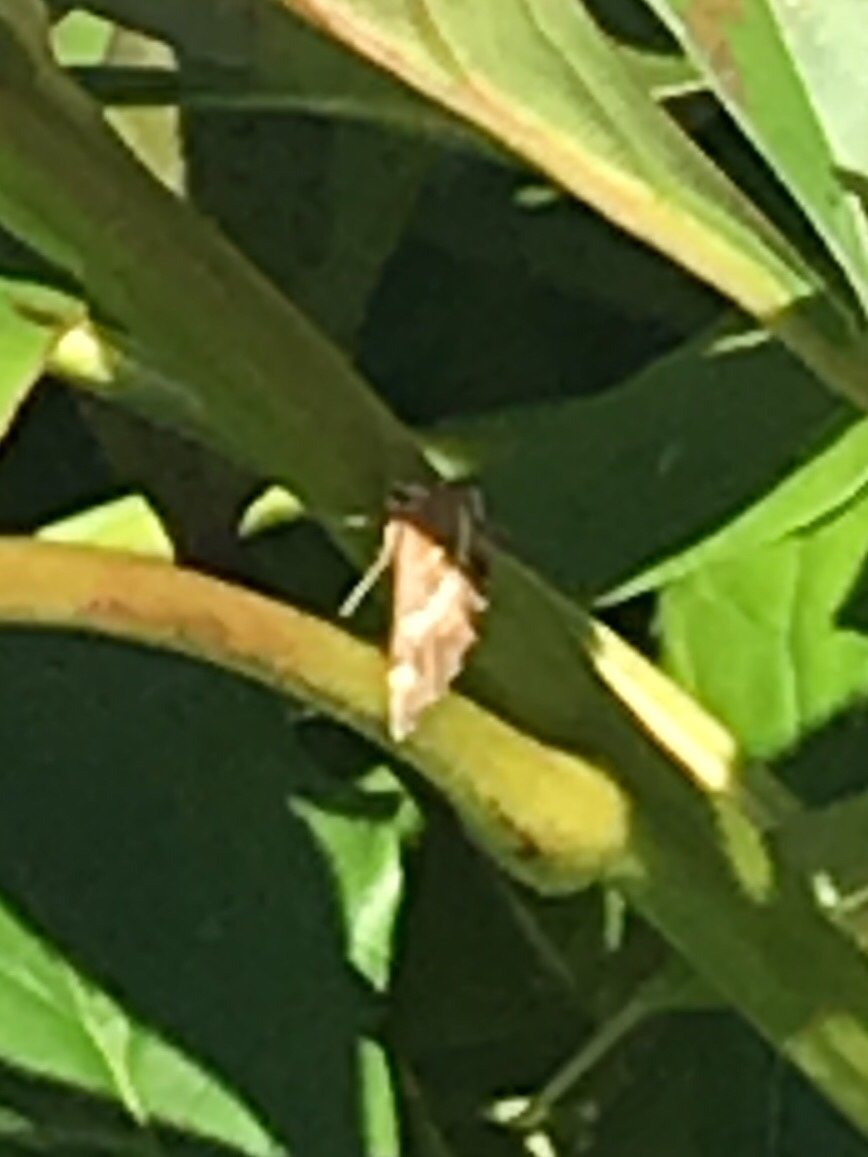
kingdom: Animalia
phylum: Arthropoda
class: Insecta
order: Lepidoptera
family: Crambidae
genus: Spoladea
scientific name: Spoladea recurvalis
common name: Beet webworm moth
